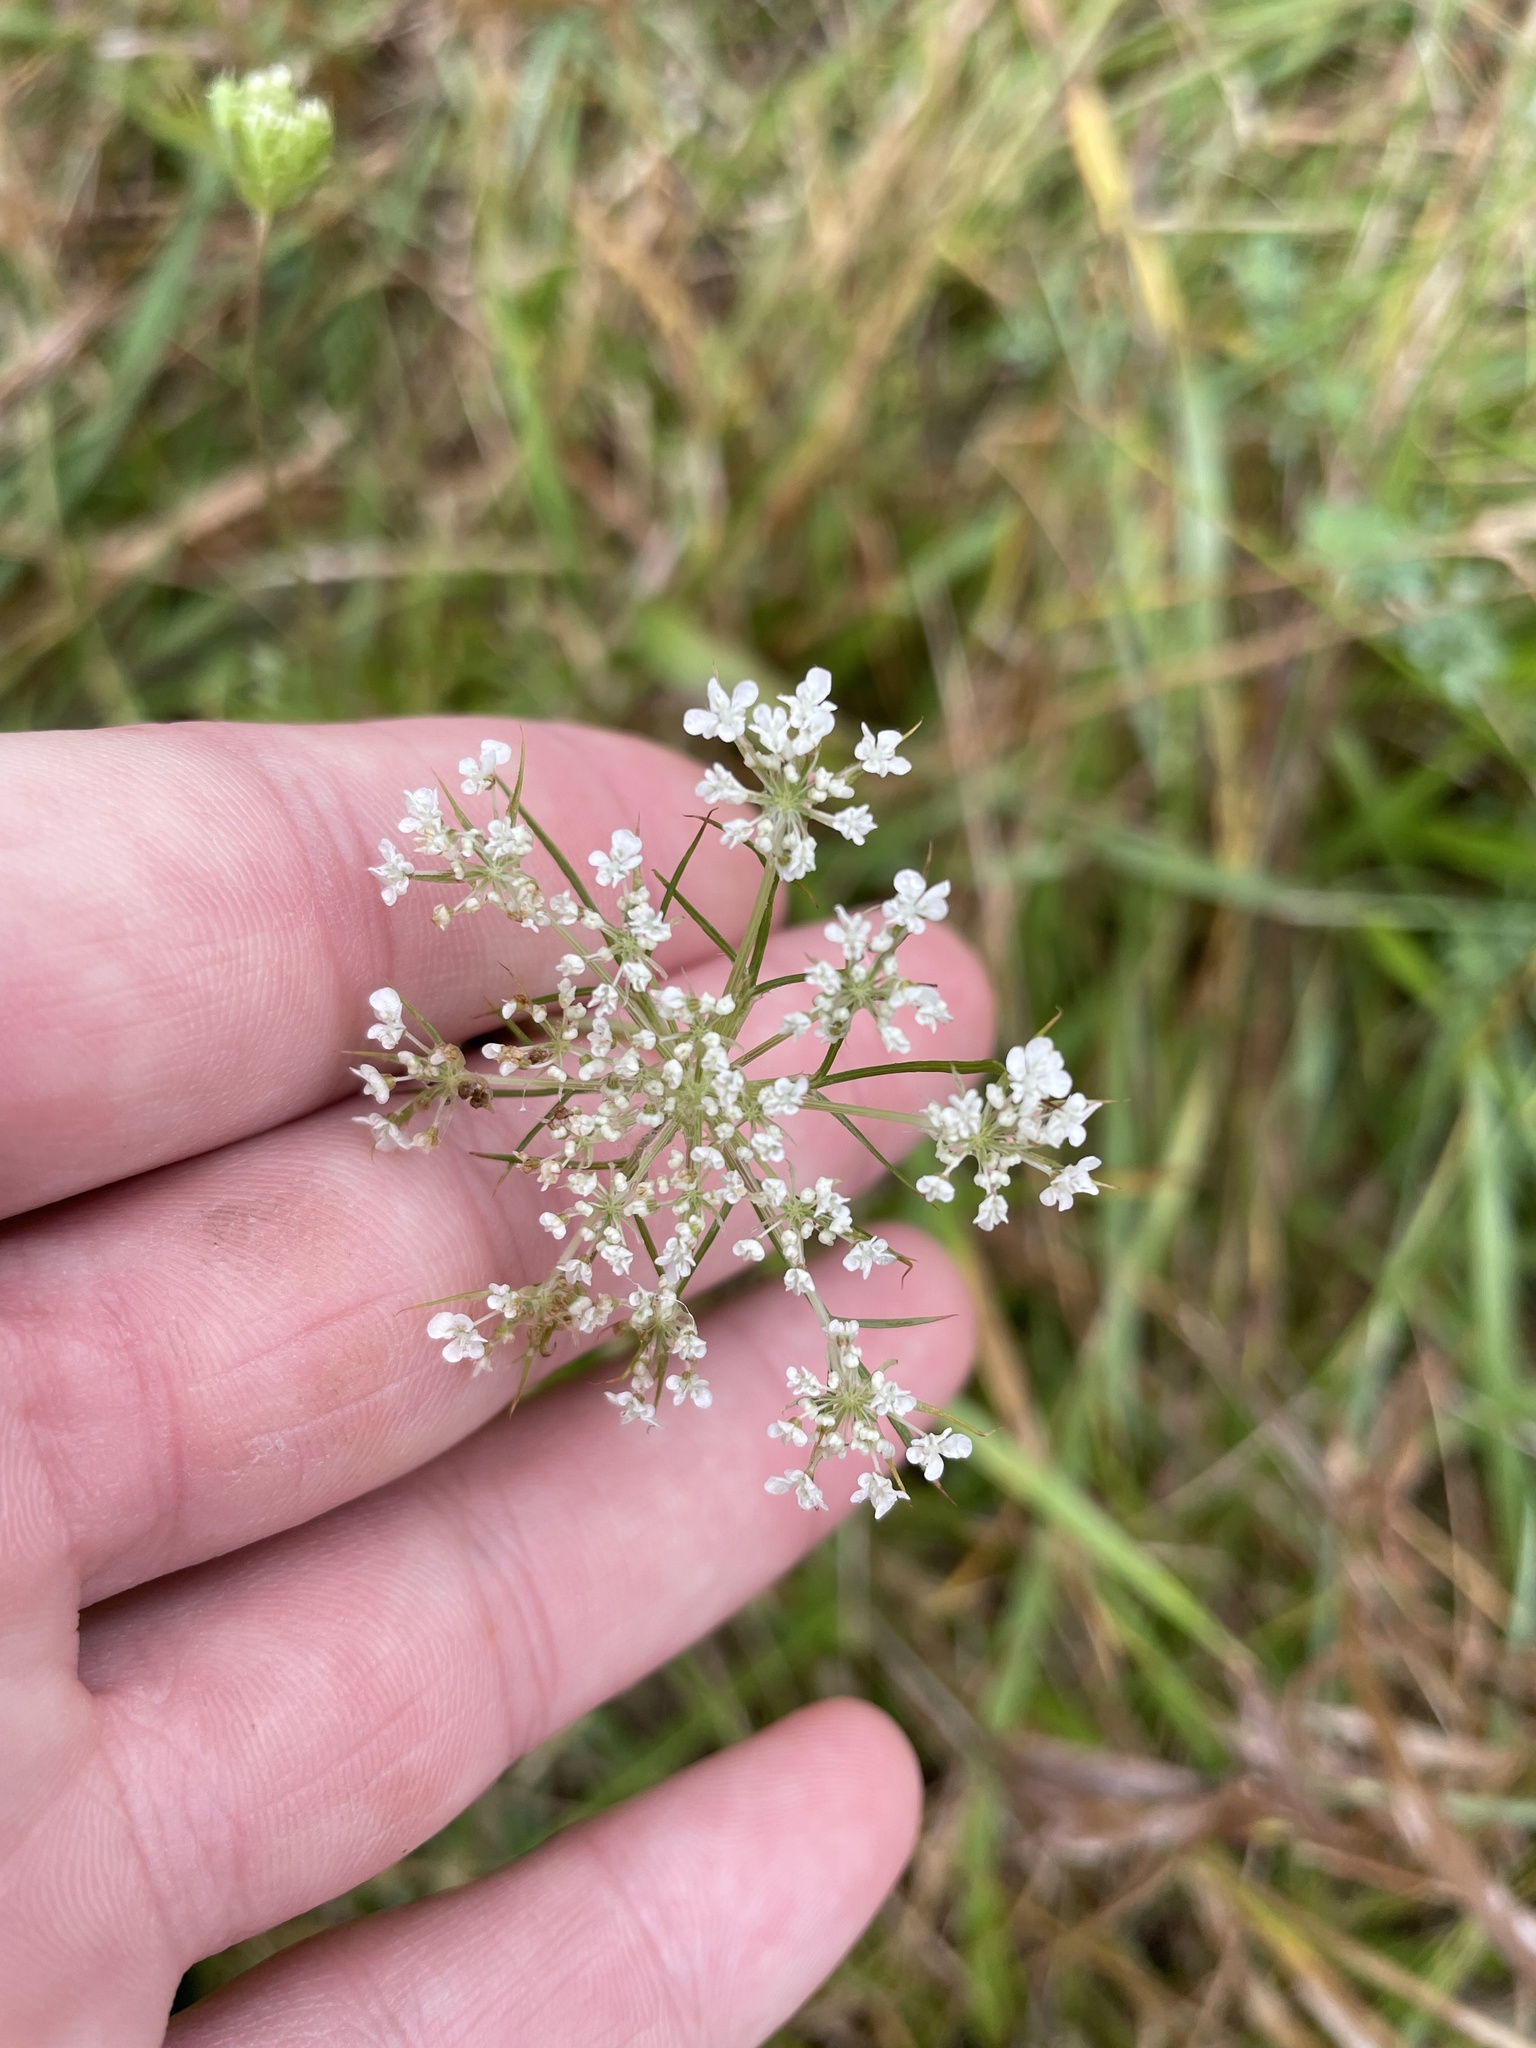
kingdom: Plantae
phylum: Tracheophyta
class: Magnoliopsida
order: Apiales
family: Apiaceae
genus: Daucus
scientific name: Daucus carota
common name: Wild carrot
